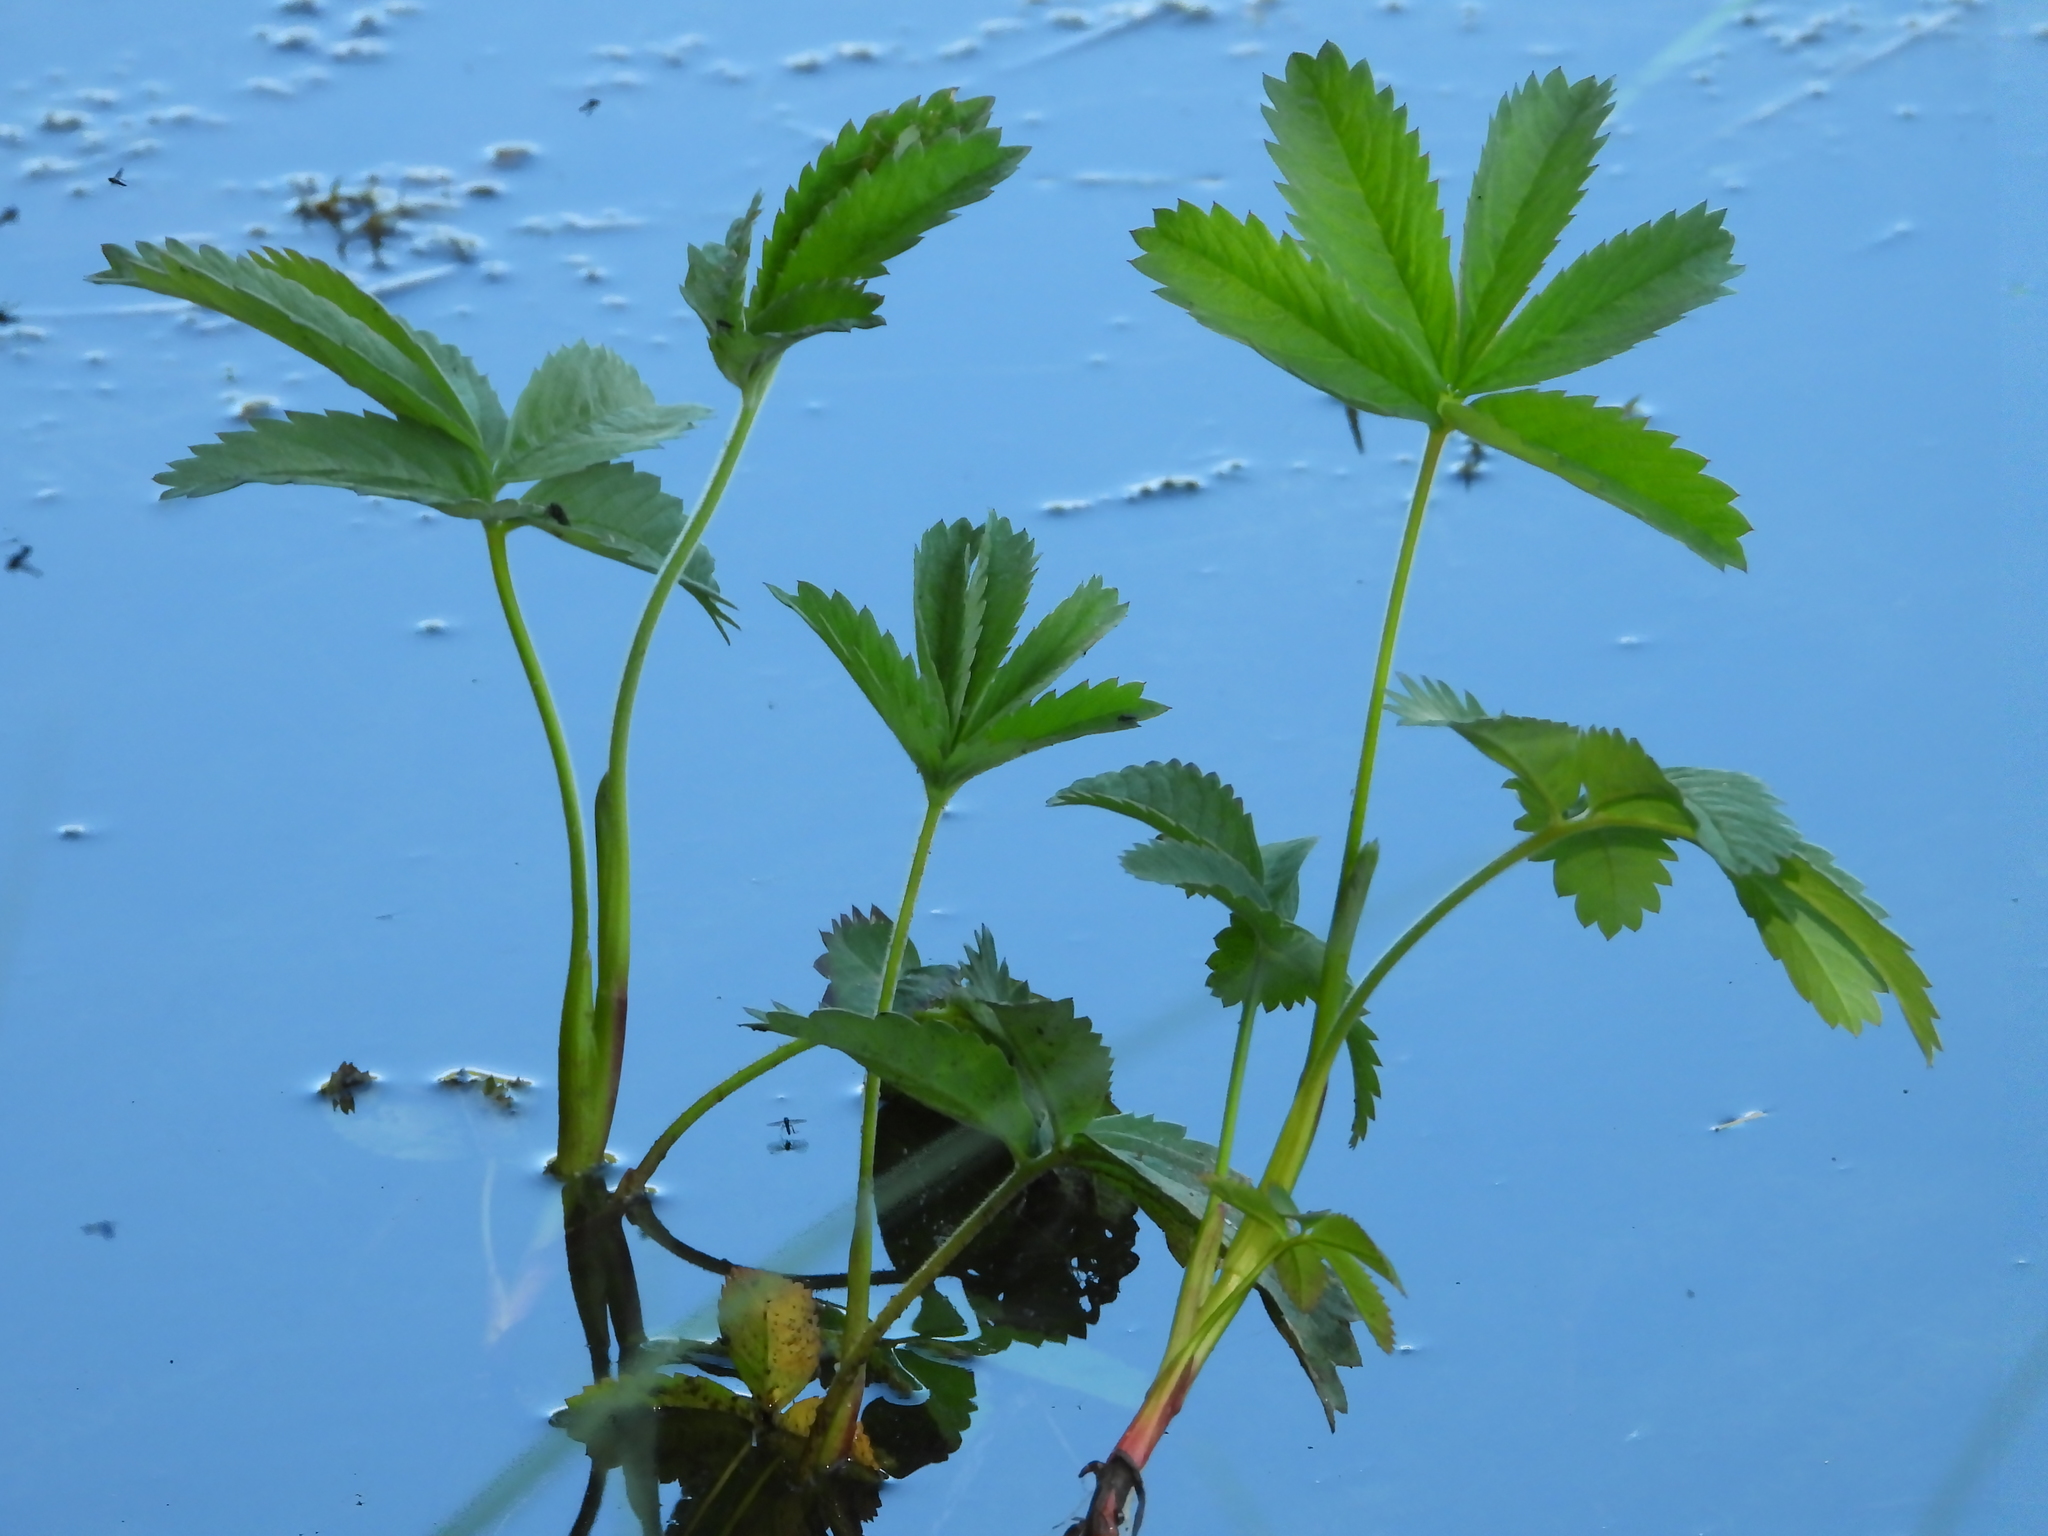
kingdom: Plantae
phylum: Tracheophyta
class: Magnoliopsida
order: Rosales
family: Rosaceae
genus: Comarum
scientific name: Comarum palustre
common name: Marsh cinquefoil
